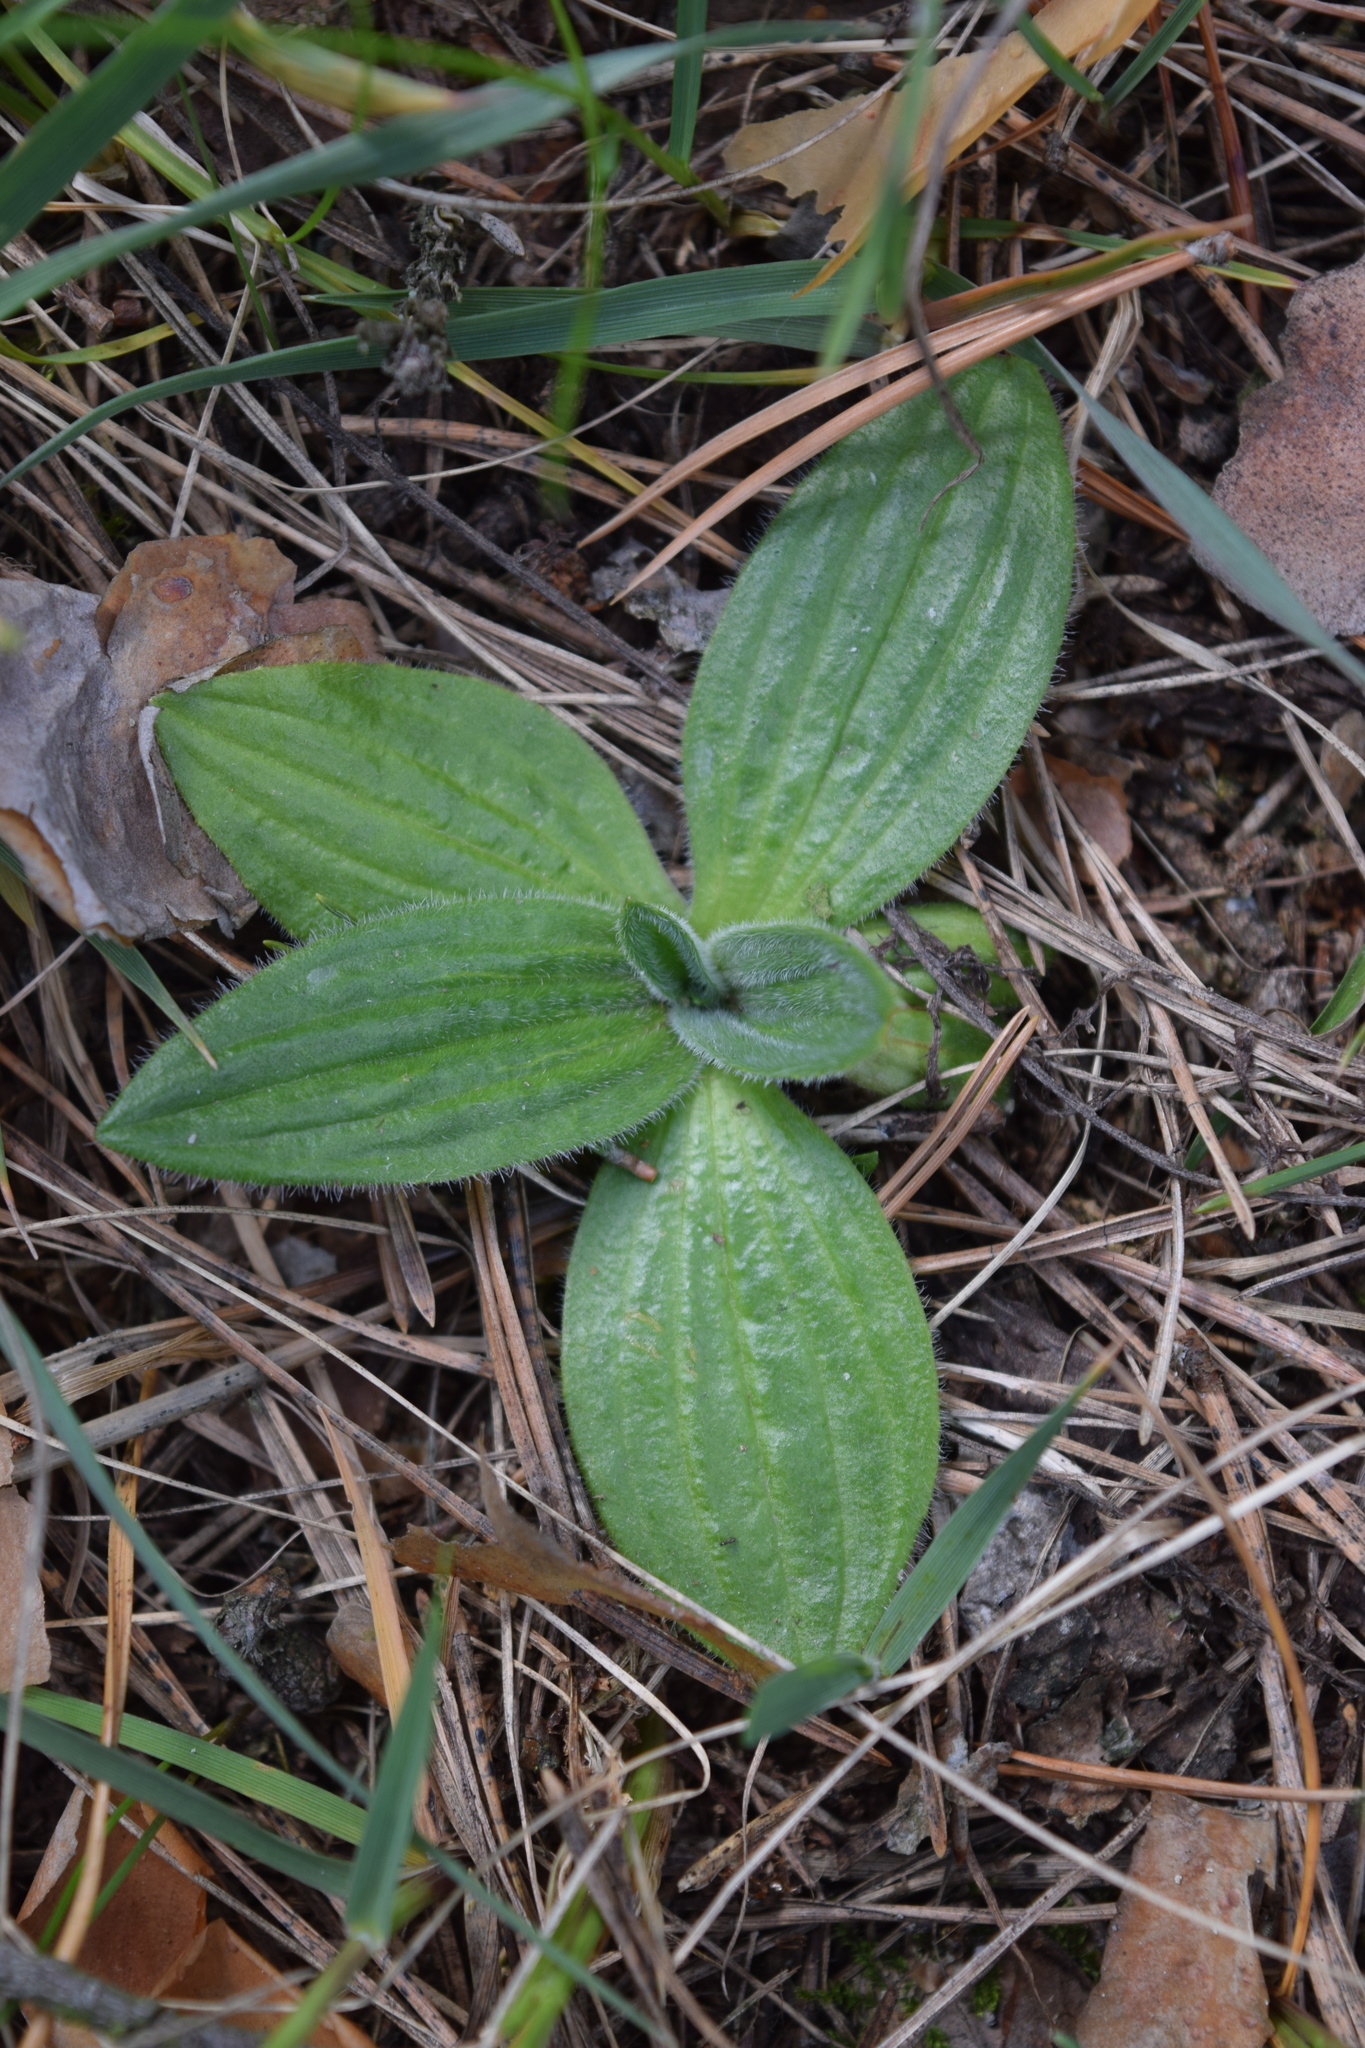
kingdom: Plantae
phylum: Tracheophyta
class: Magnoliopsida
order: Lamiales
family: Plantaginaceae
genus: Plantago
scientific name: Plantago media
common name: Hoary plantain
